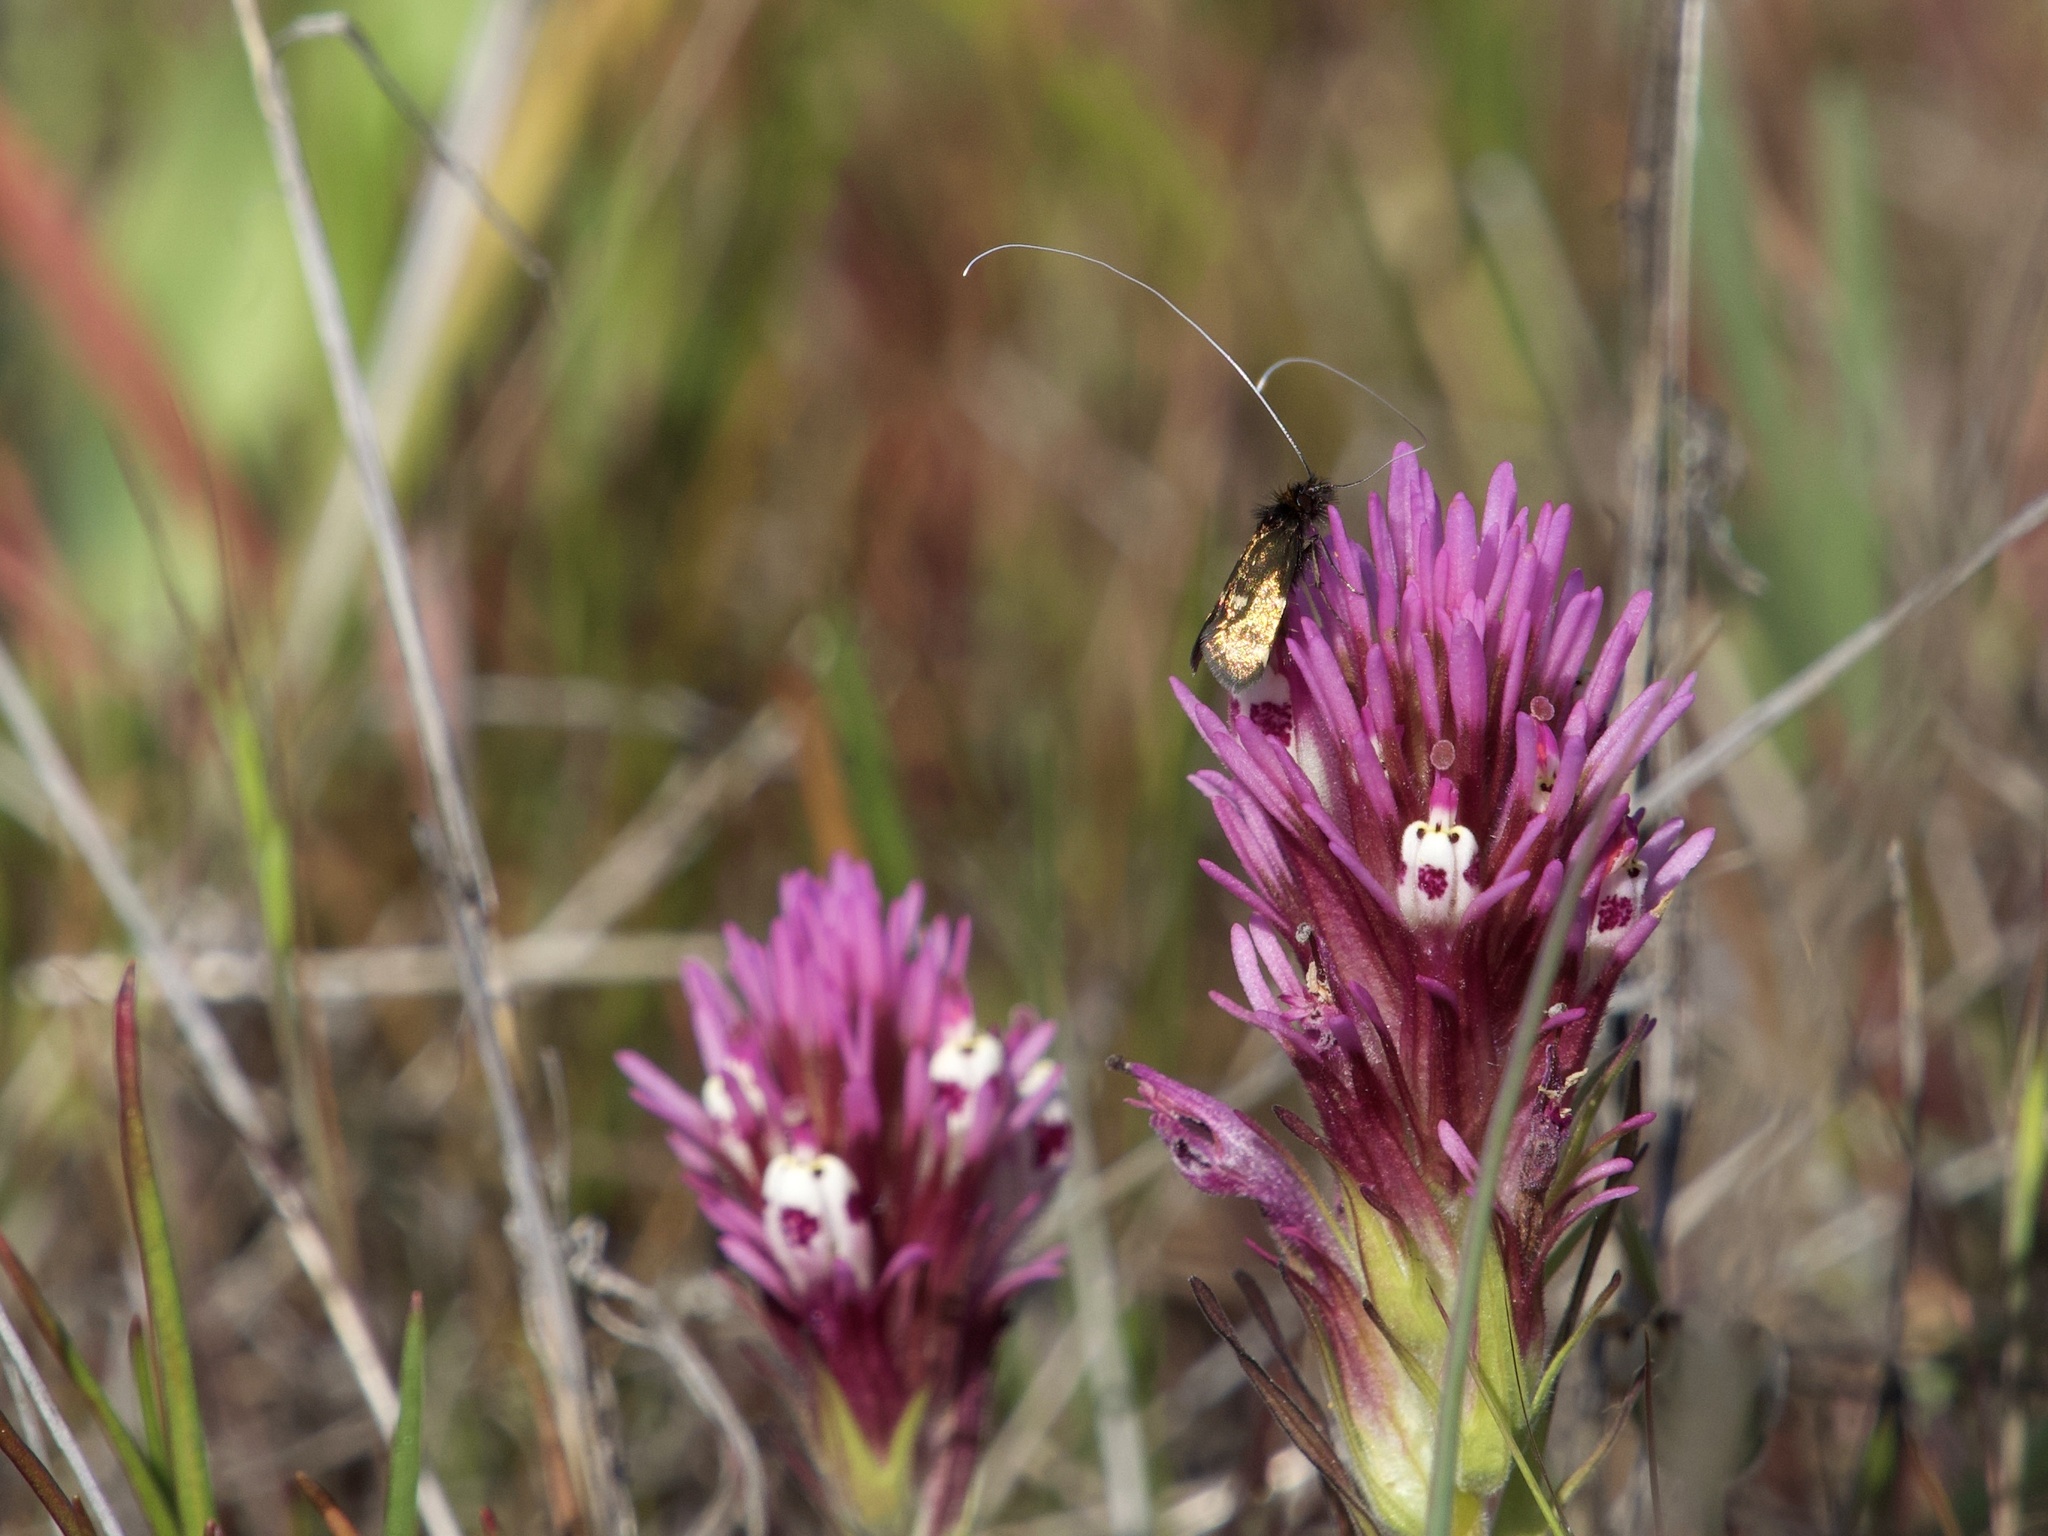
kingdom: Plantae
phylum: Tracheophyta
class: Magnoliopsida
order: Lamiales
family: Orobanchaceae
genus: Castilleja
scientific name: Castilleja densiflora
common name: Dense-flower indian paintbrush
